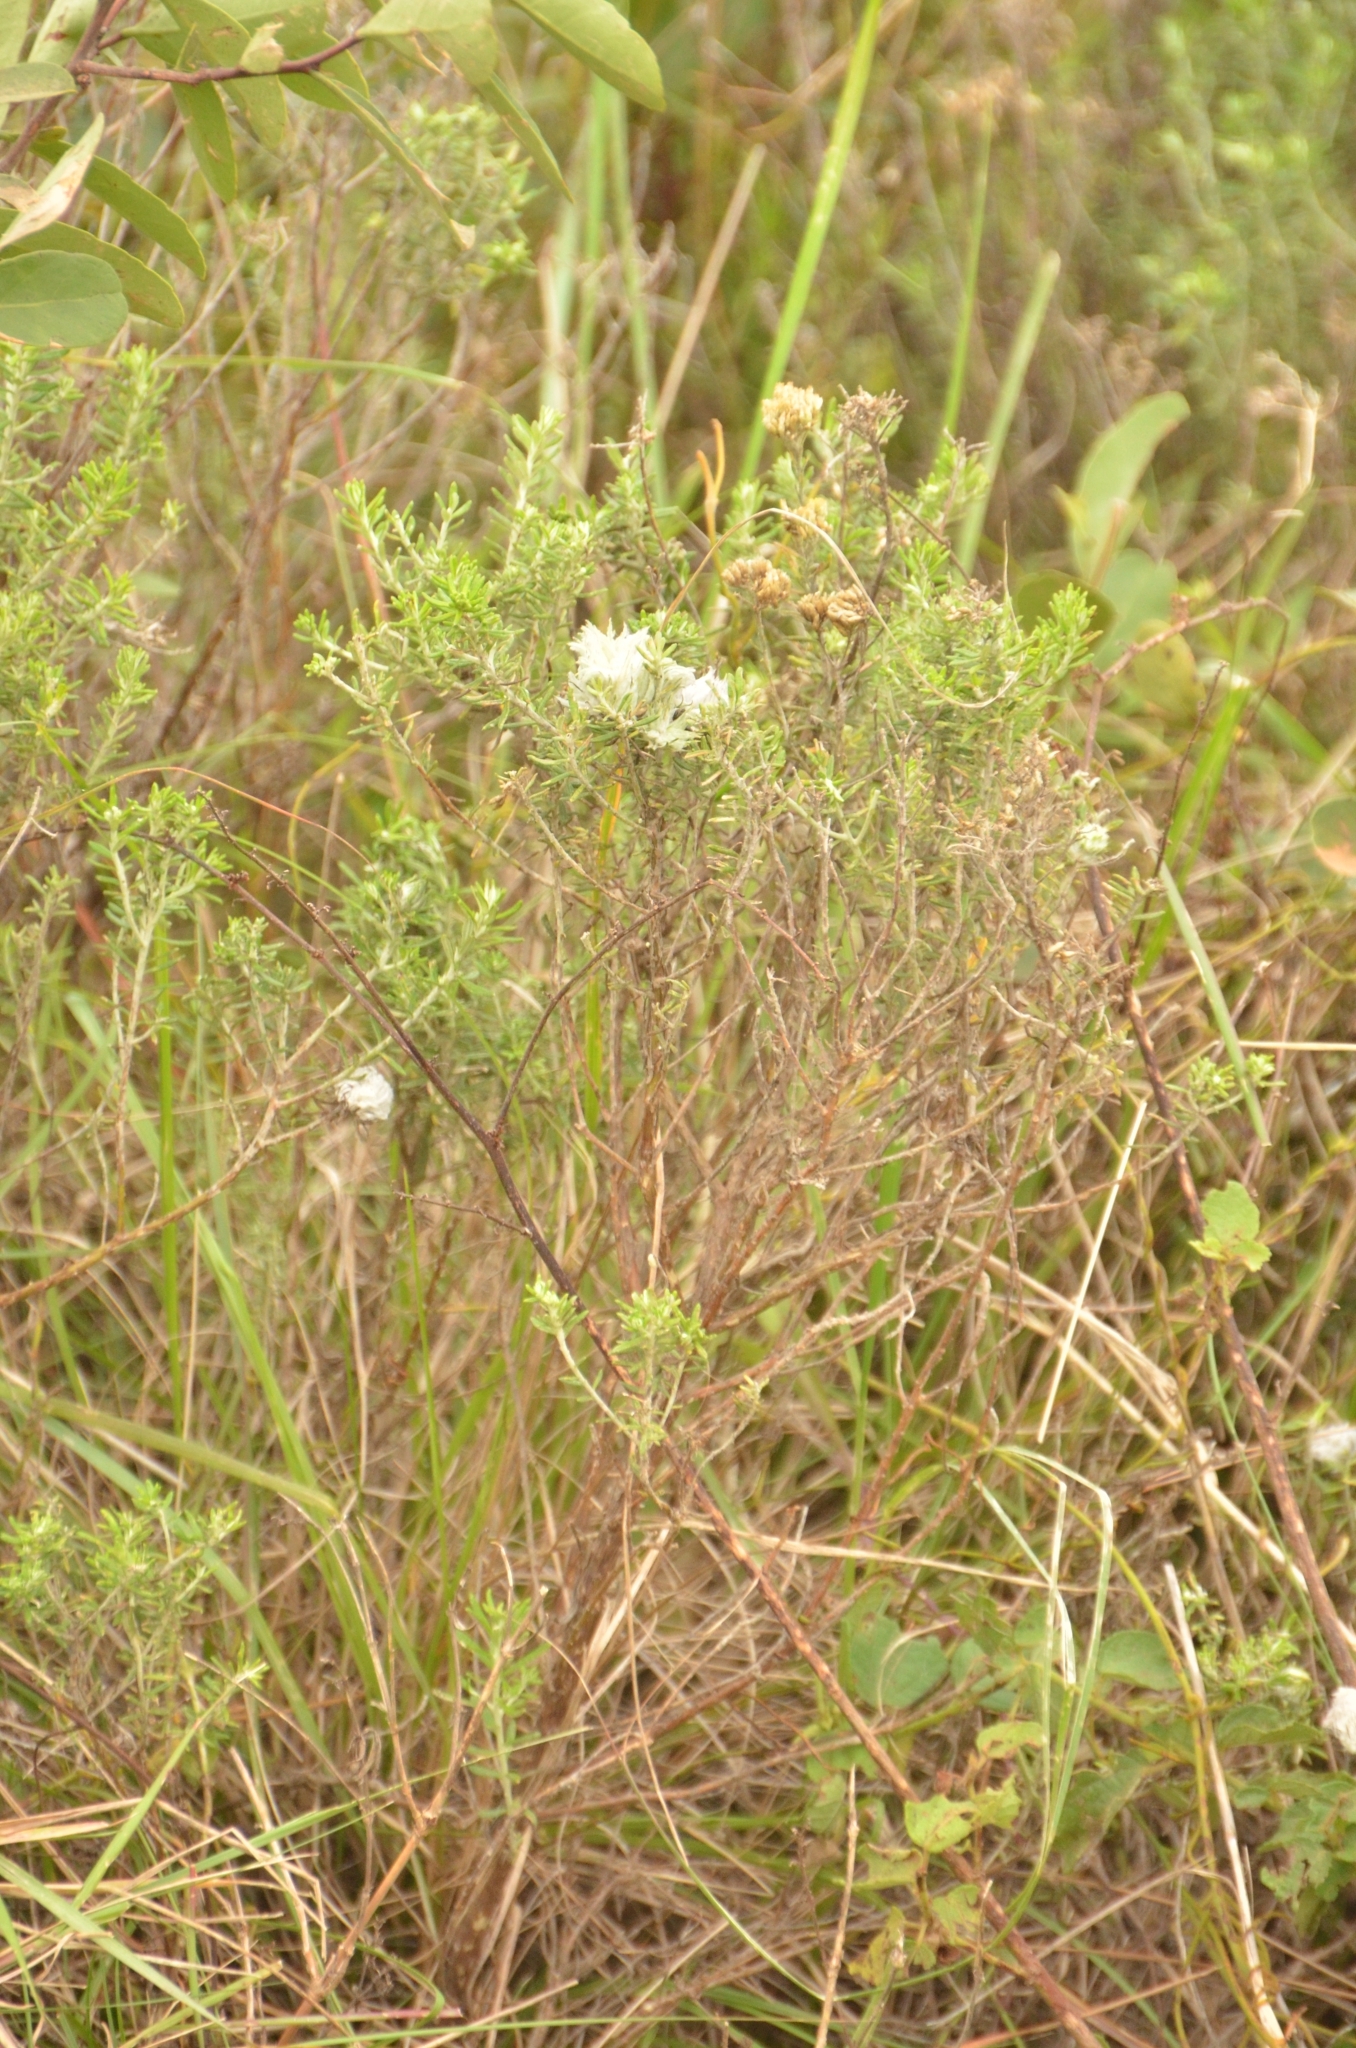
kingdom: Plantae
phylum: Tracheophyta
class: Magnoliopsida
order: Asterales
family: Asteraceae
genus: Helichrysum
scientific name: Helichrysum kraussii
